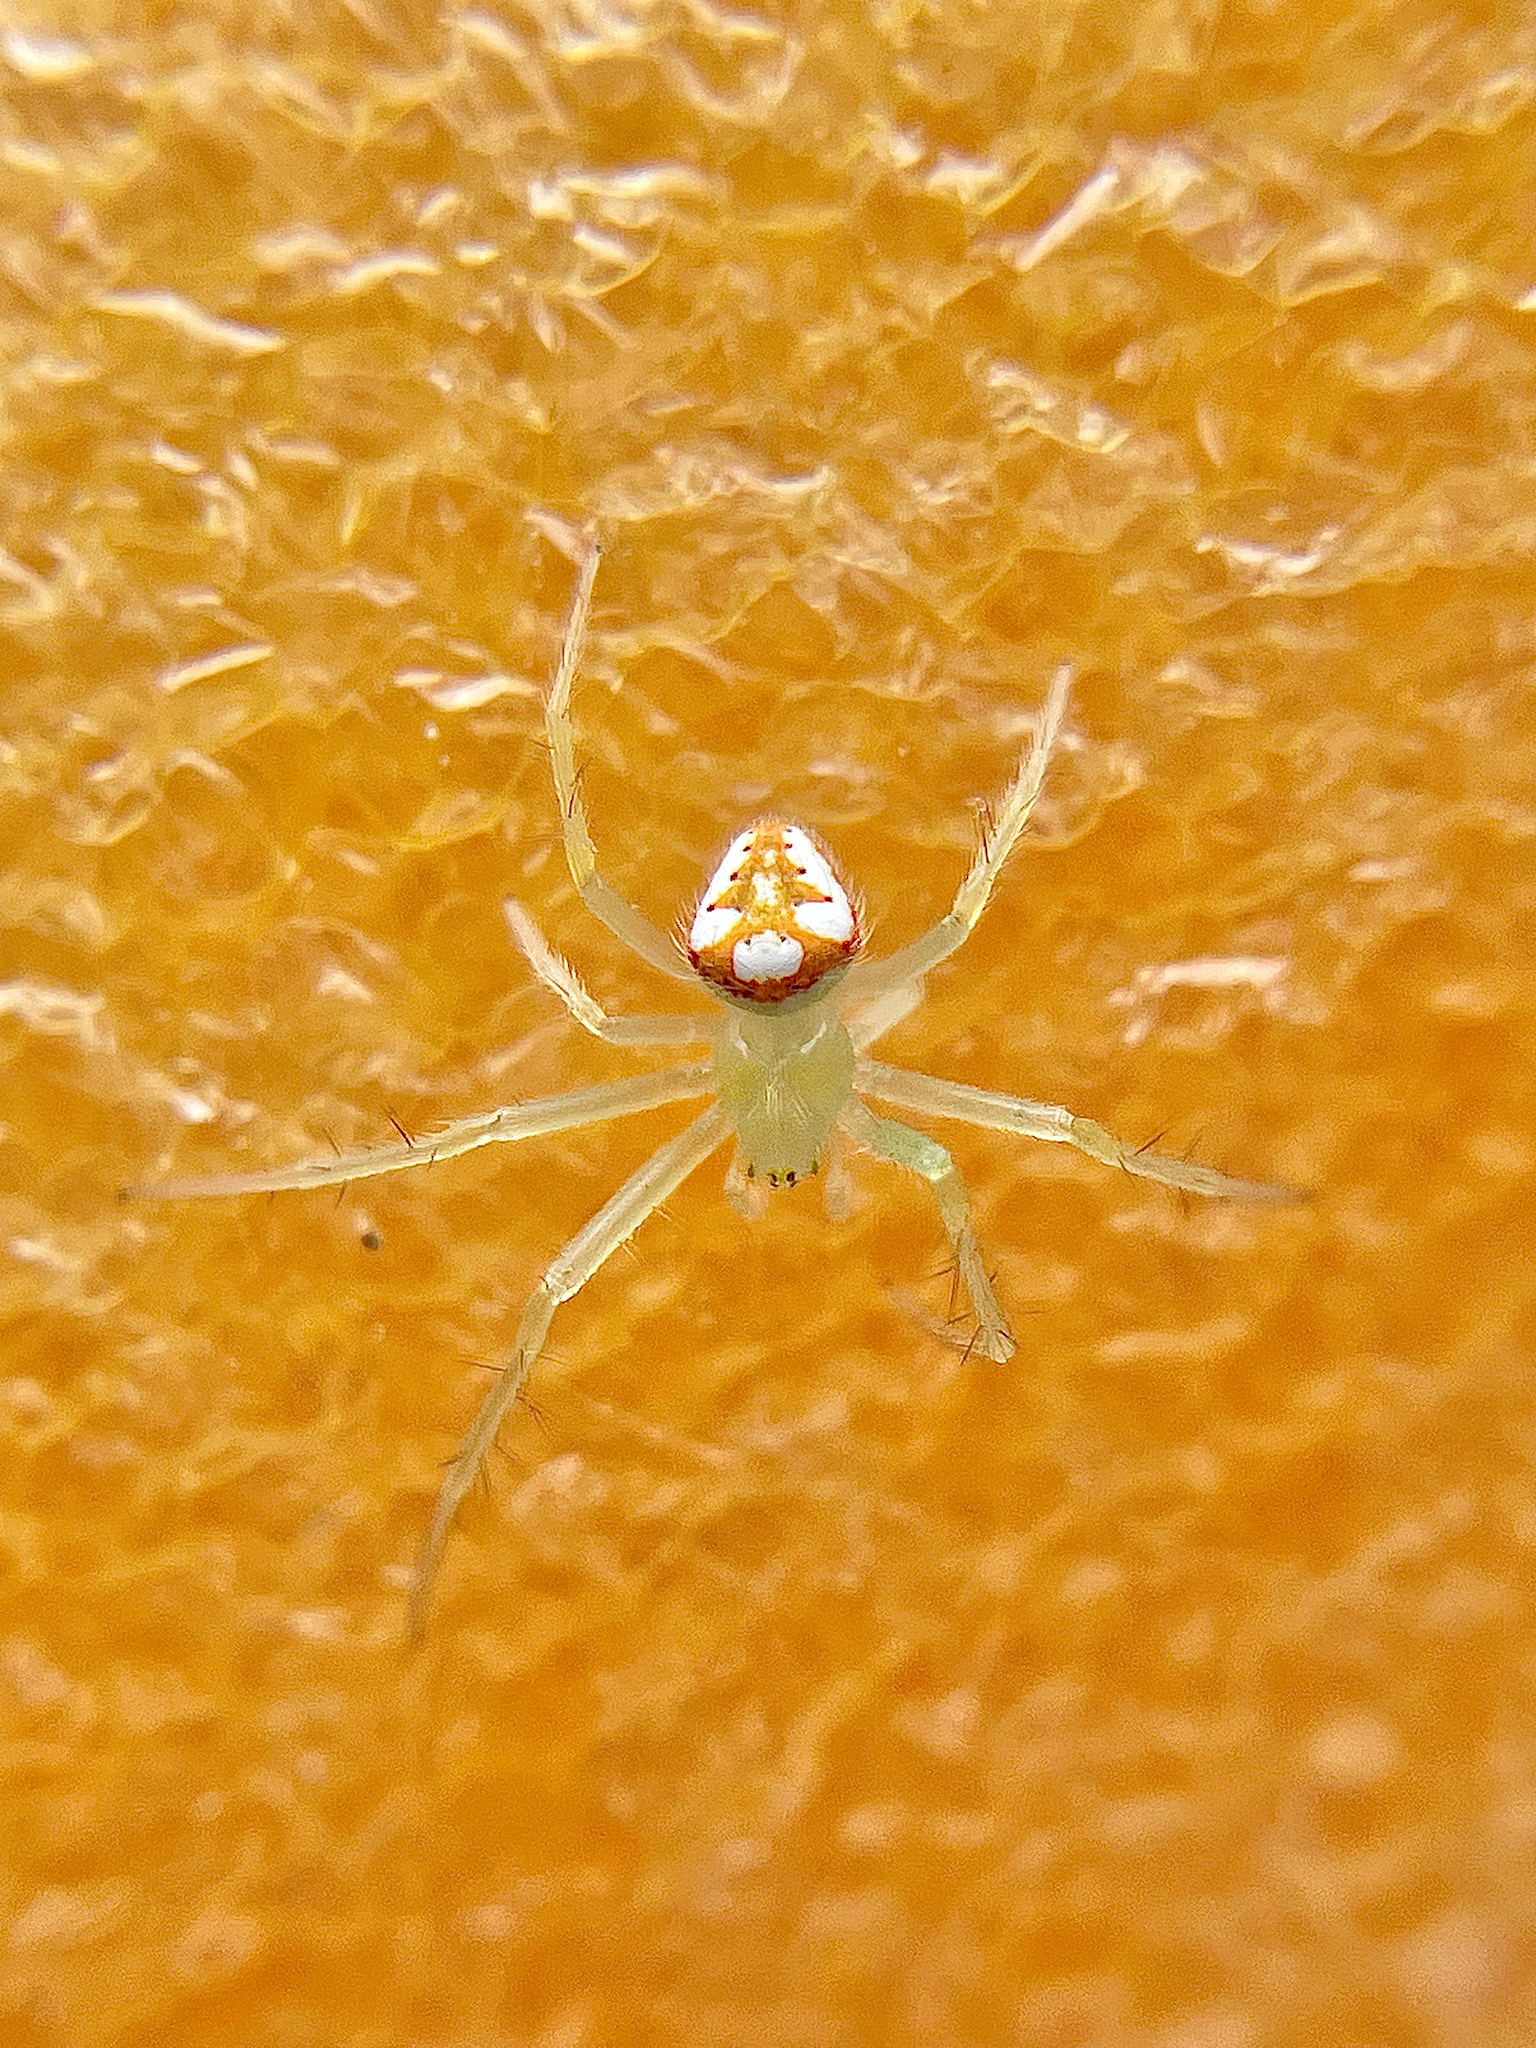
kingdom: Animalia
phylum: Arthropoda
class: Arachnida
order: Araneae
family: Araneidae
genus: Araneus
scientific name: Araneus guttulatus
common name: Red-backed orbweaver
